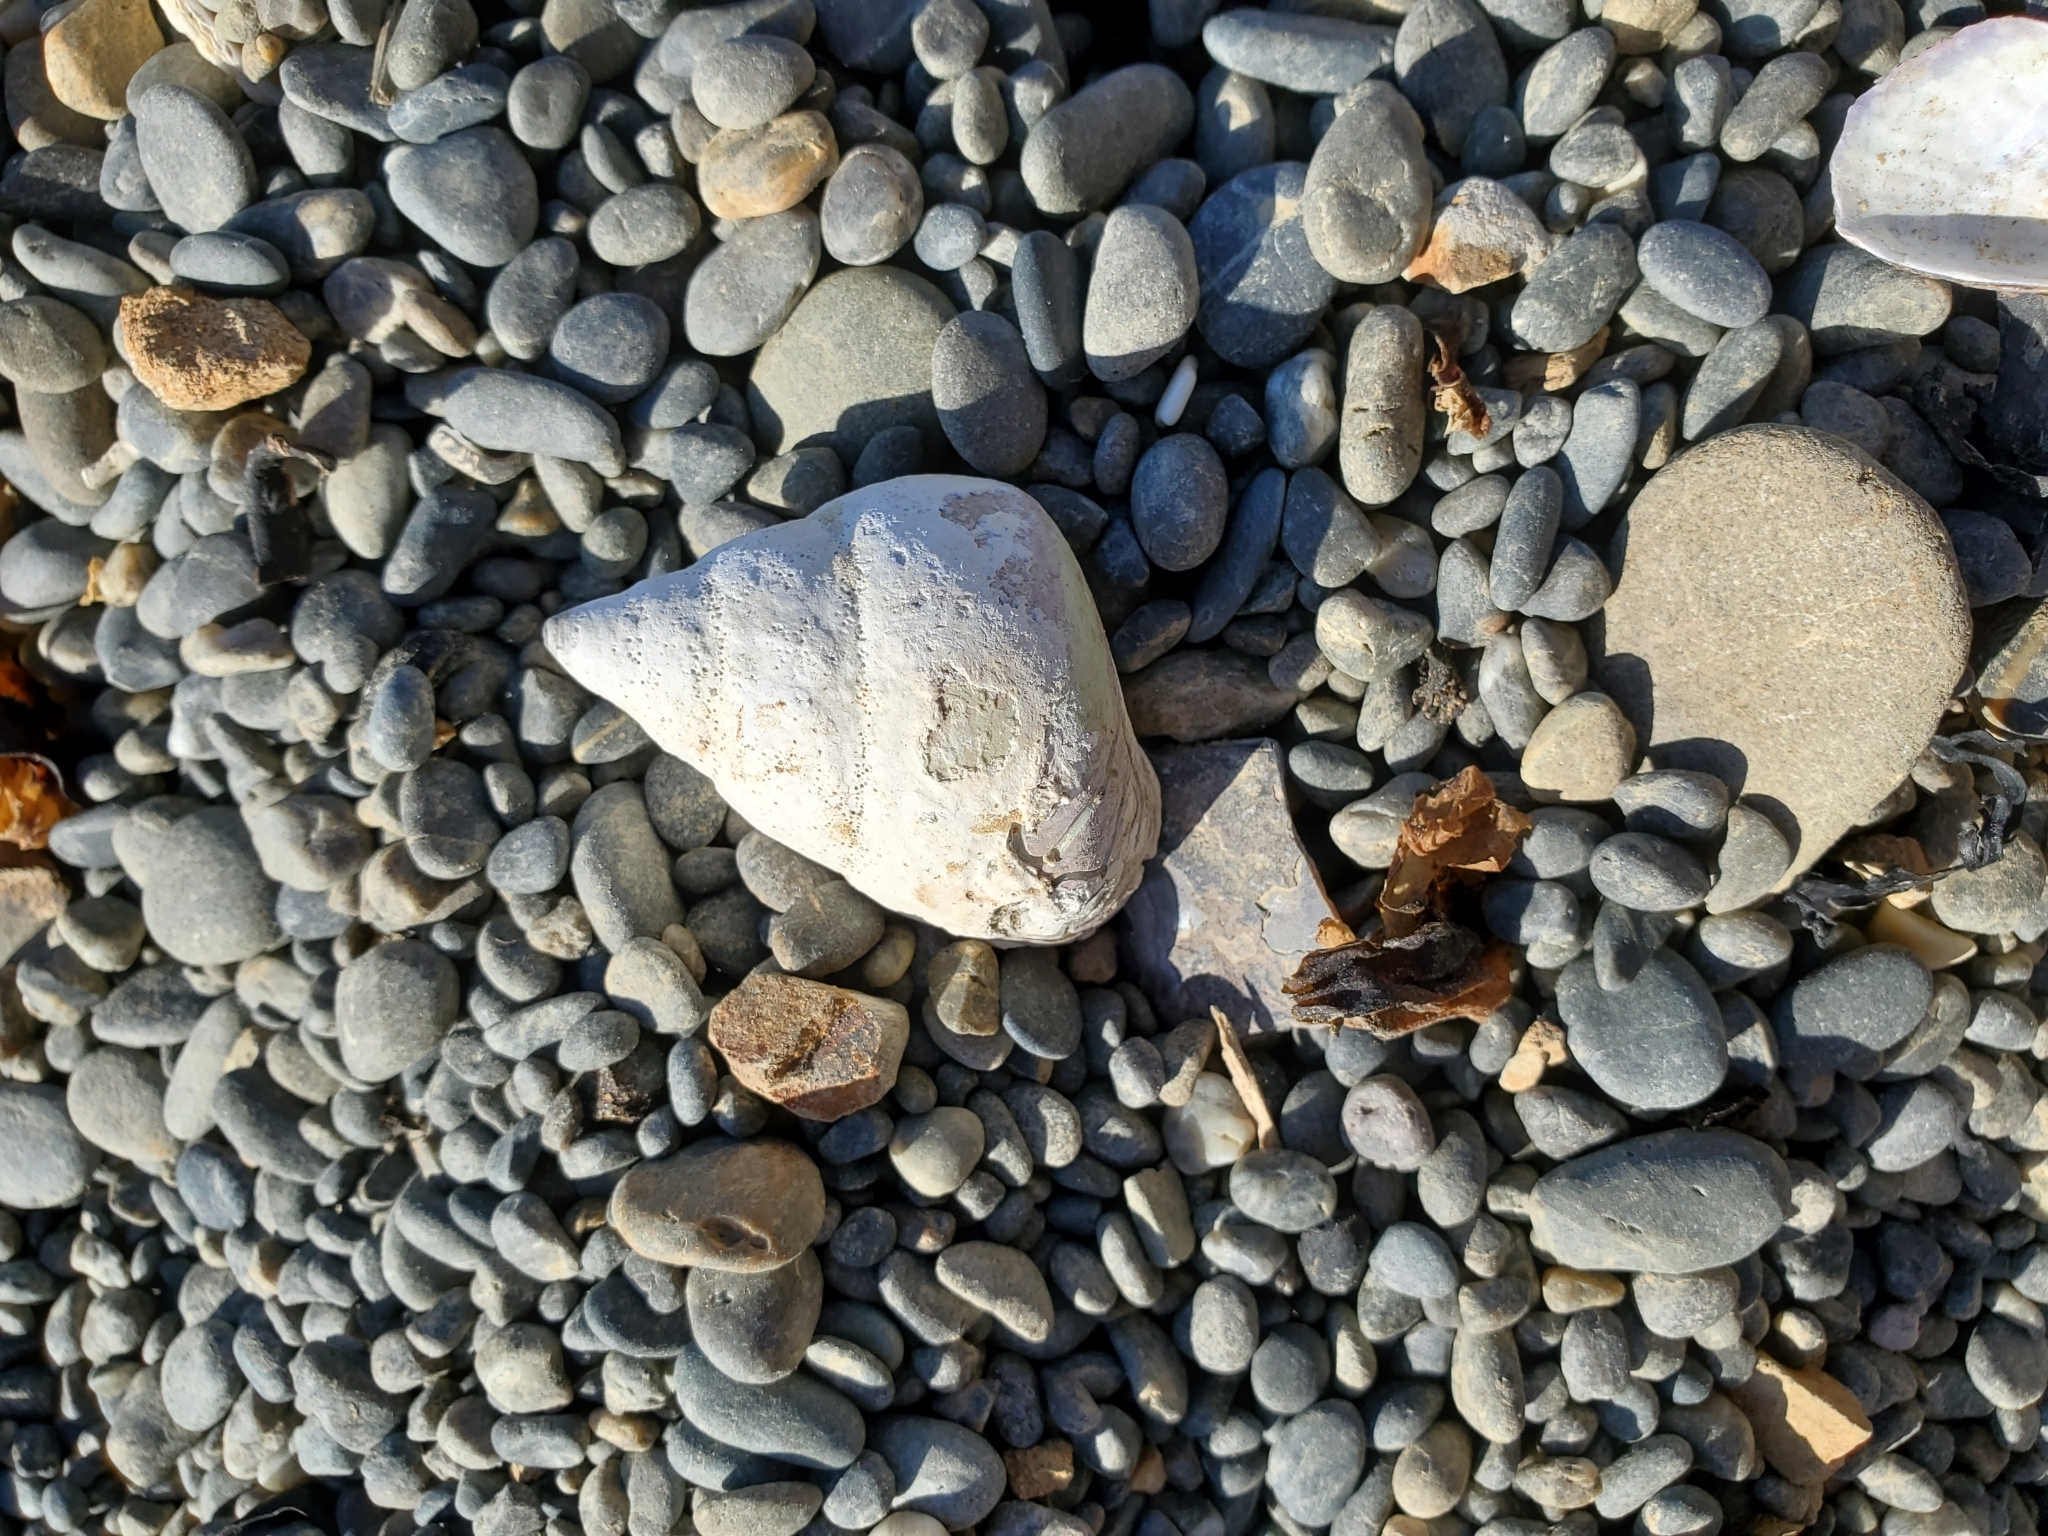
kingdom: Animalia
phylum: Mollusca
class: Gastropoda
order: Trochida
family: Trochidae
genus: Cantharidus
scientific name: Cantharidus opalus
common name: Opal jewel topsnail
